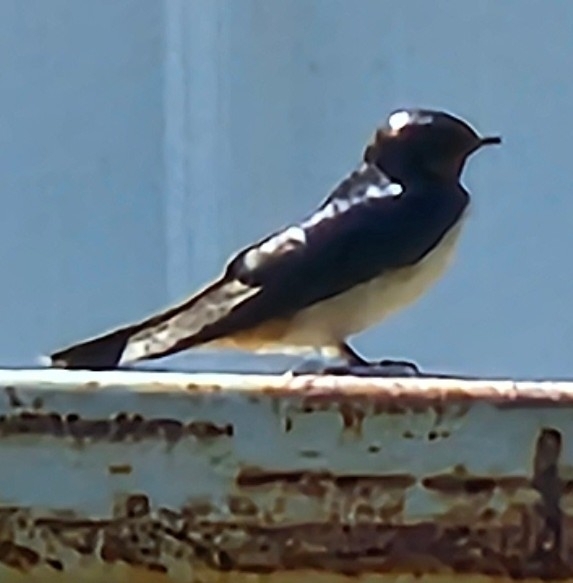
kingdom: Animalia
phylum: Chordata
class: Aves
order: Passeriformes
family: Hirundinidae
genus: Hirundo
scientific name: Hirundo rustica
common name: Barn swallow
